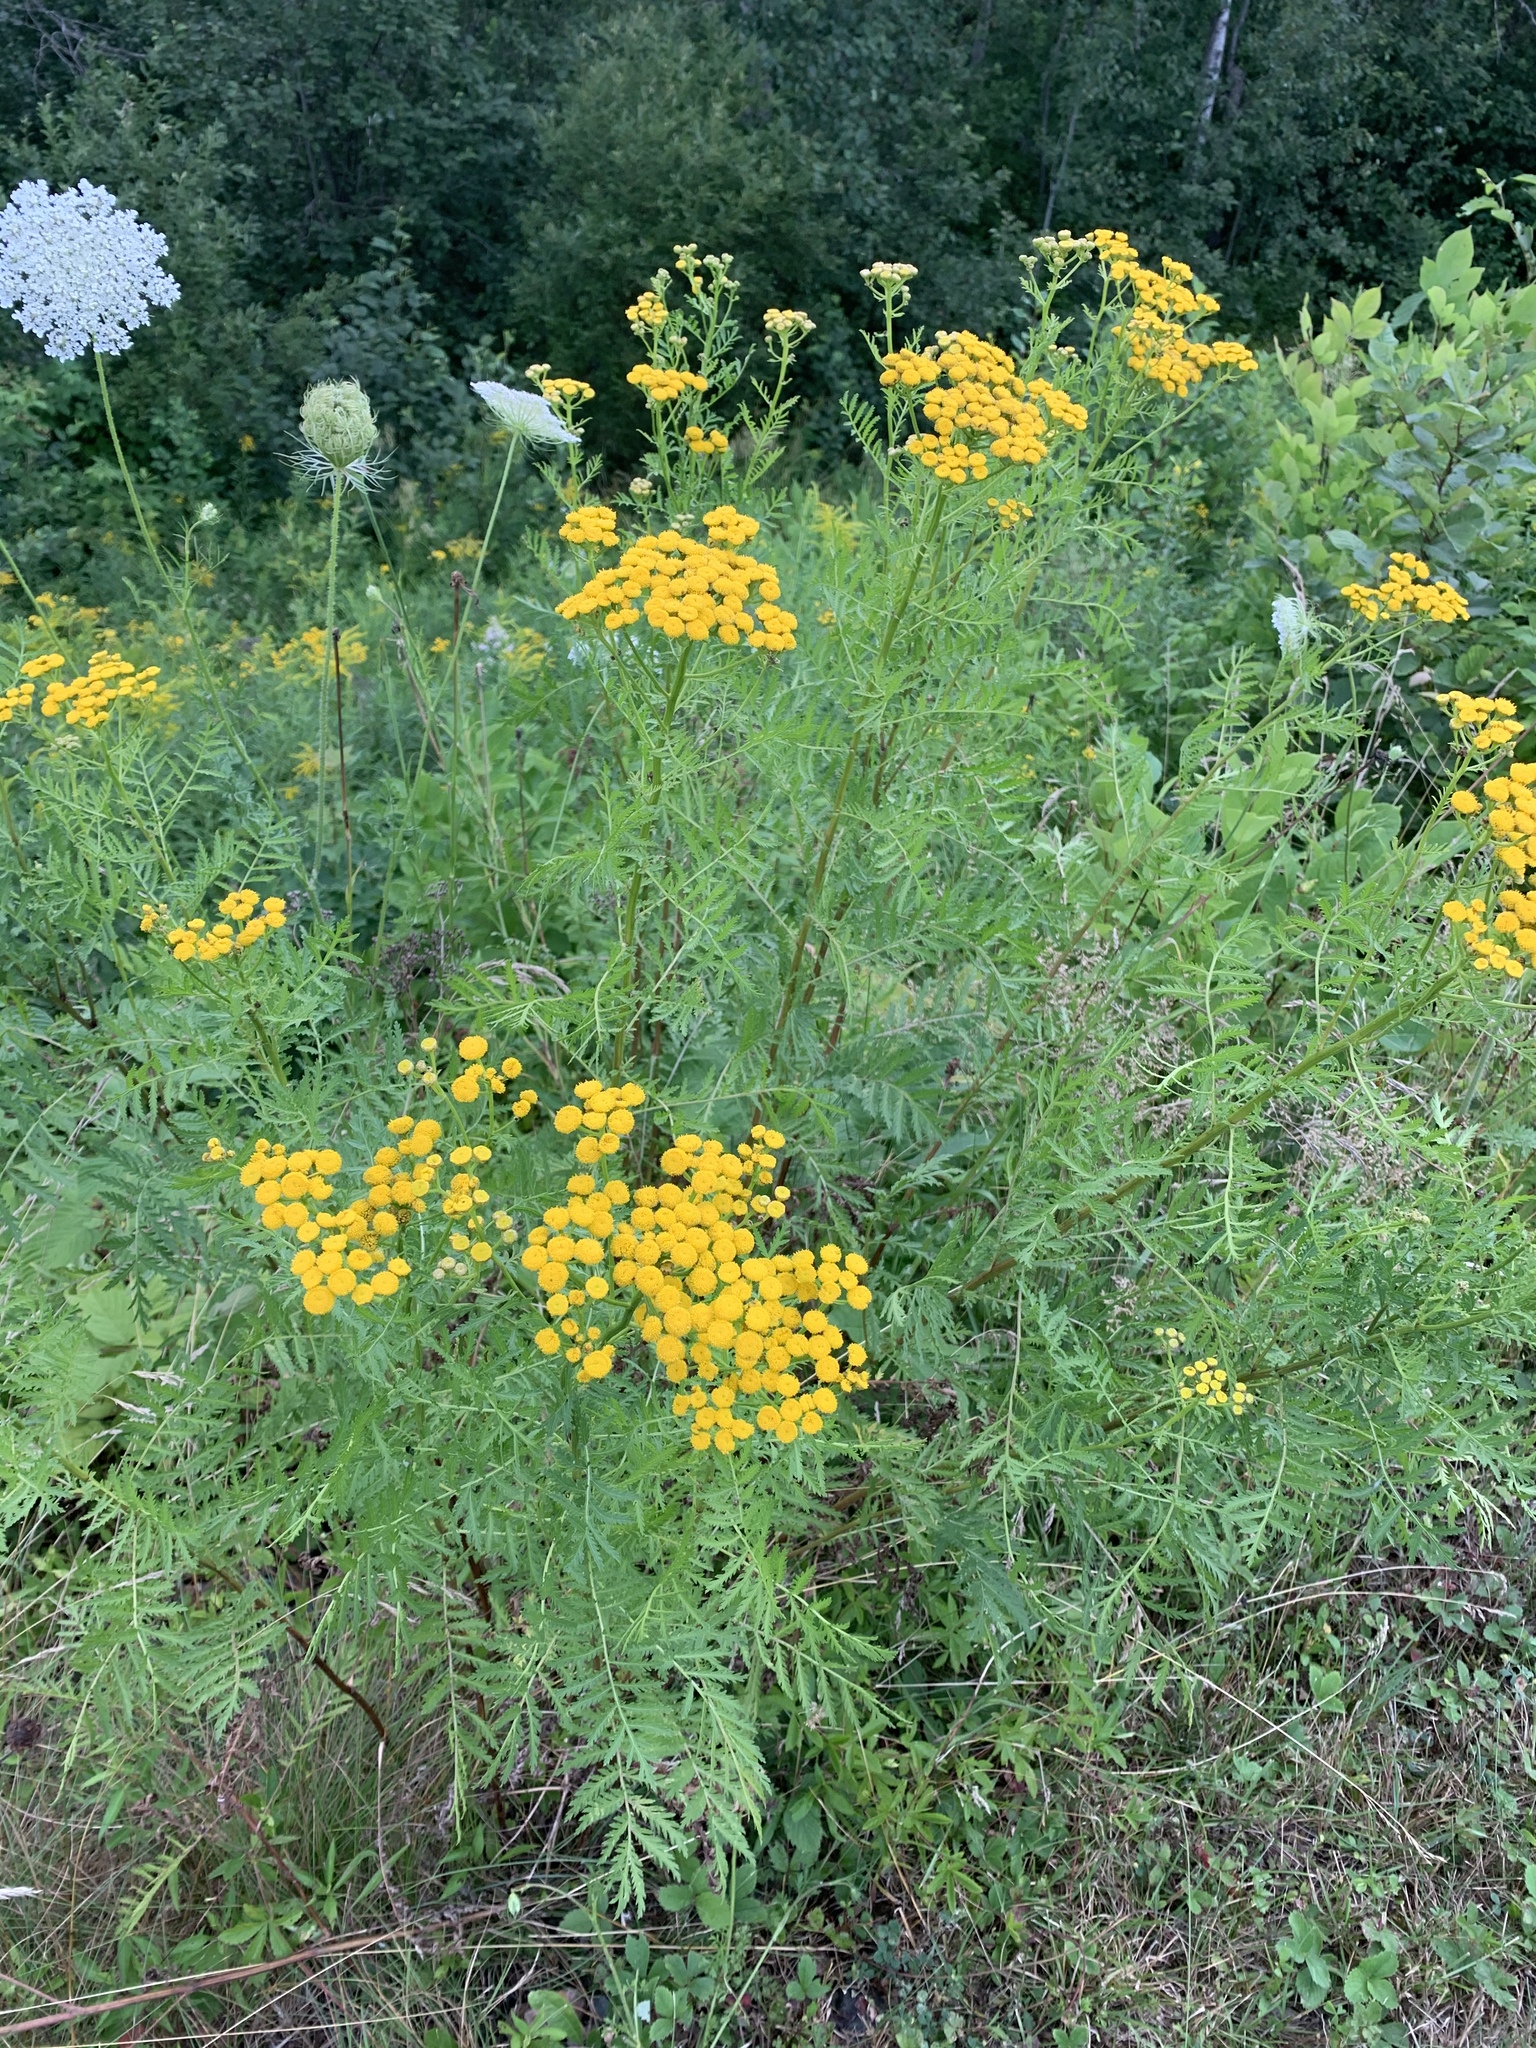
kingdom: Plantae
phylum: Tracheophyta
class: Magnoliopsida
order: Asterales
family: Asteraceae
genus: Tanacetum
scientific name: Tanacetum vulgare
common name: Common tansy
